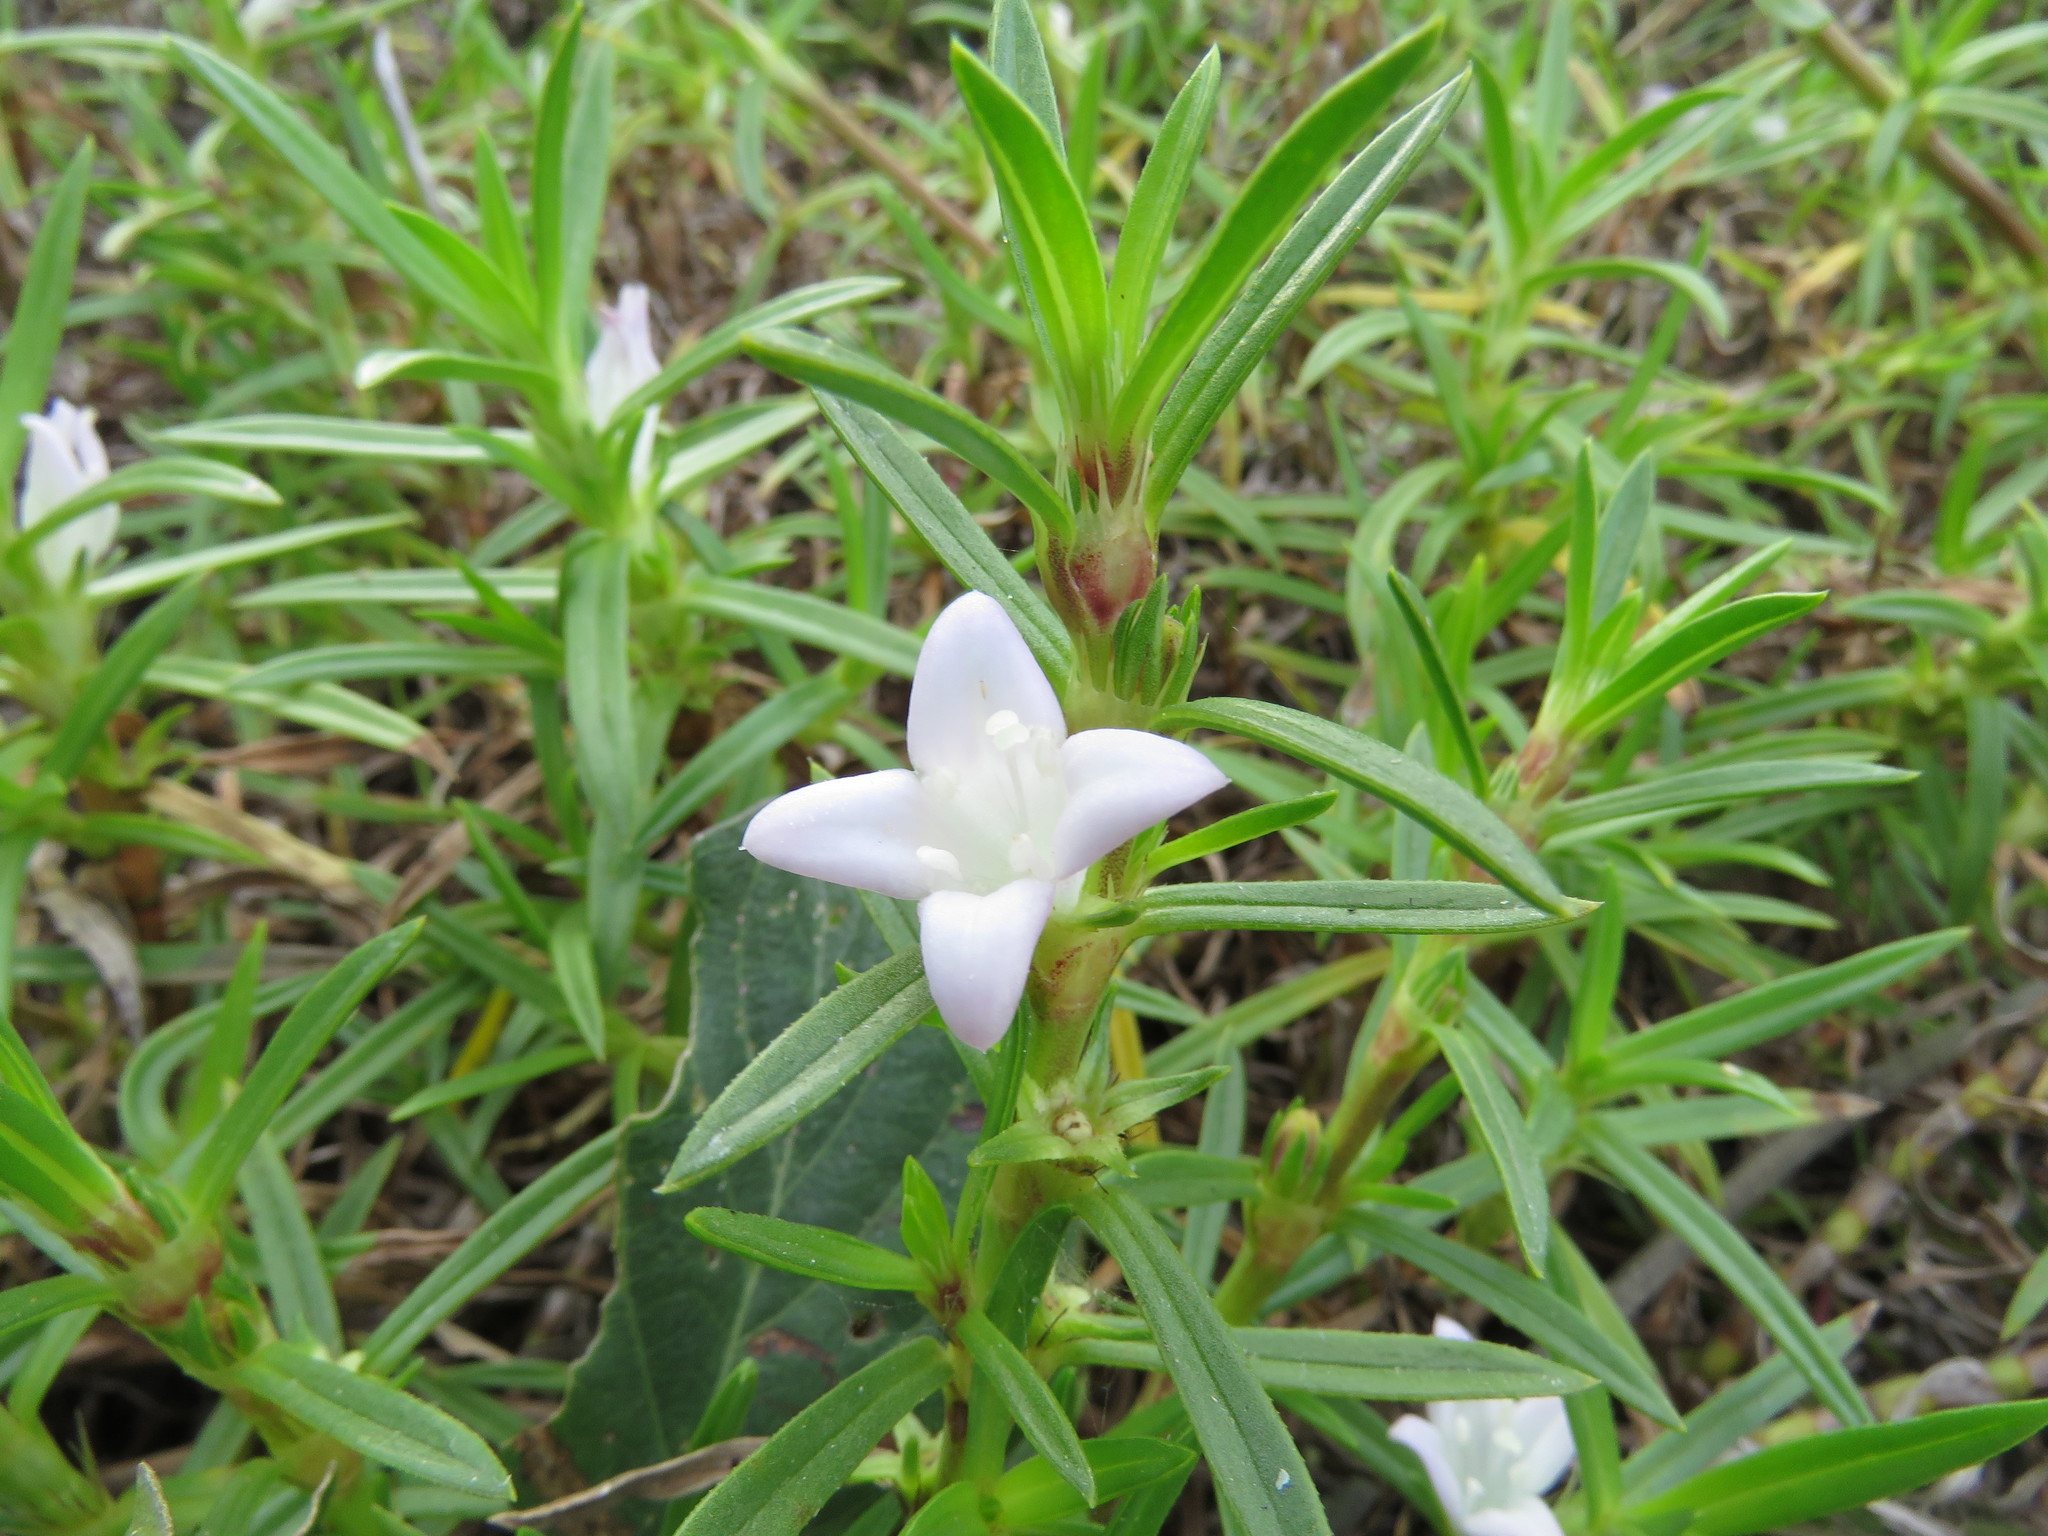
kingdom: Plantae
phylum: Tracheophyta
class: Magnoliopsida
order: Gentianales
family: Rubiaceae
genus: Hexasepalum
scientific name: Hexasepalum angustifolium
